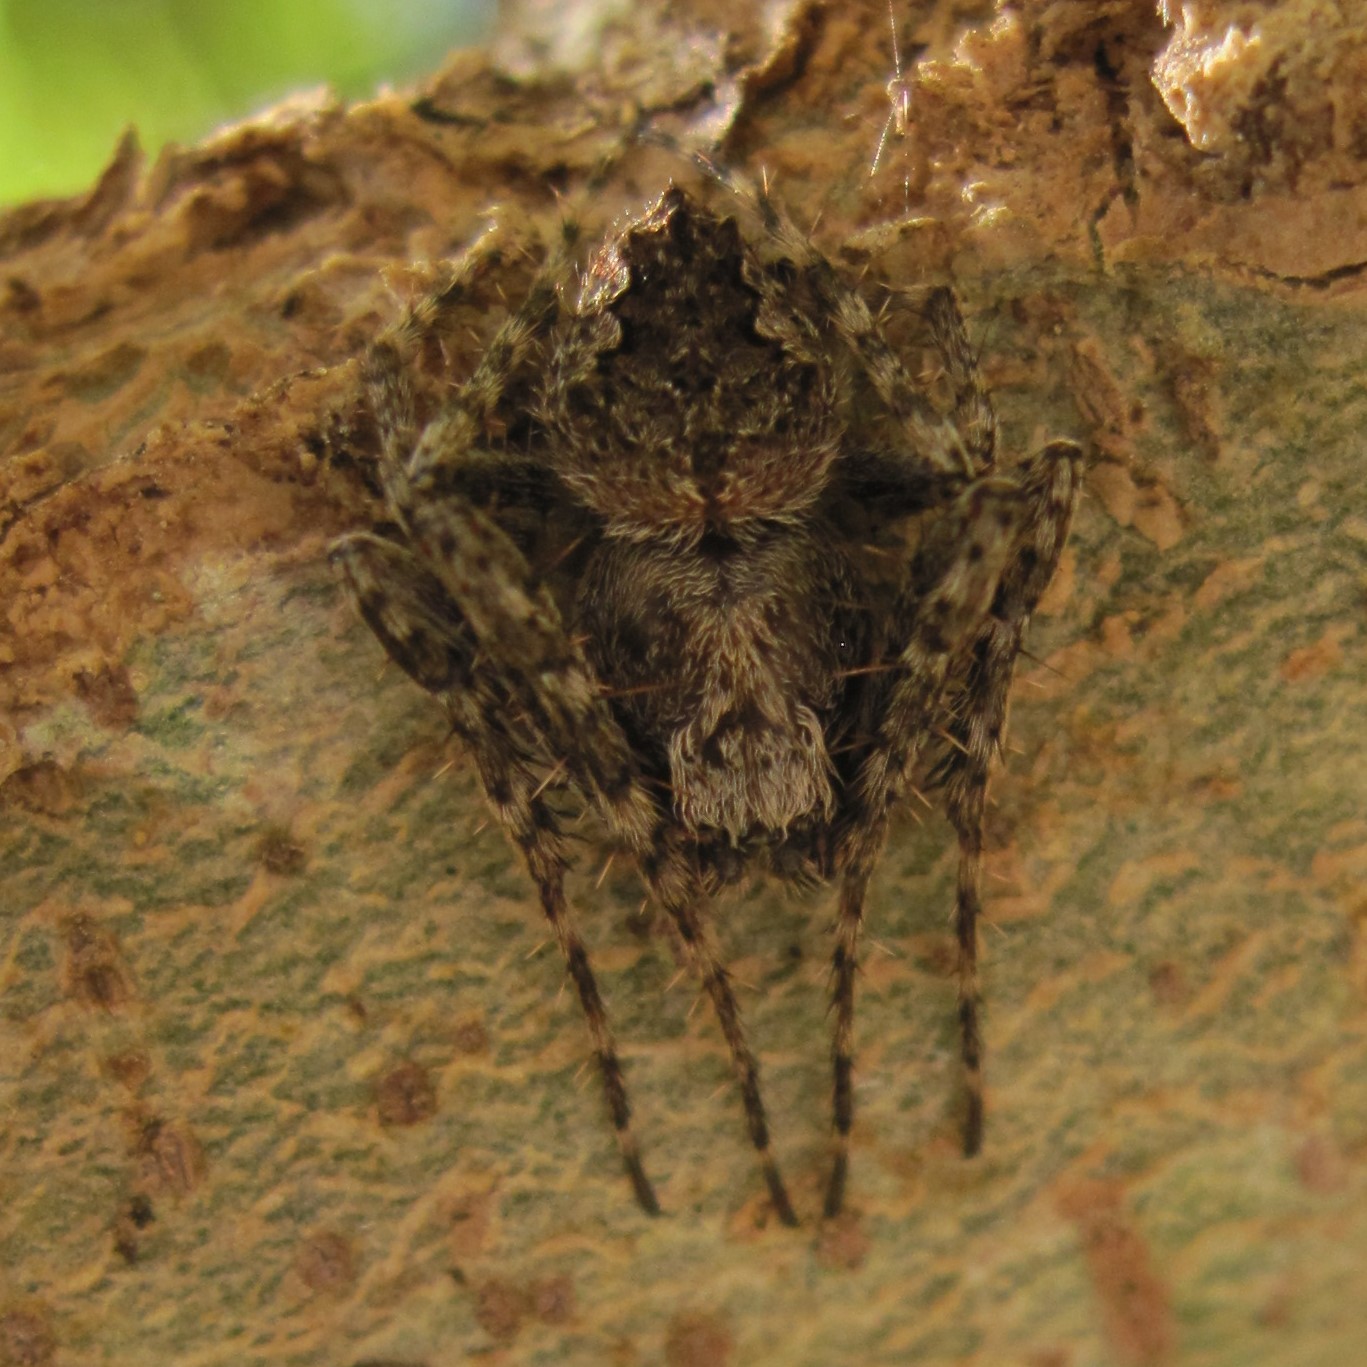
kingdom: Animalia
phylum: Arthropoda
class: Arachnida
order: Araneae
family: Araneidae
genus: Eriophora
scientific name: Eriophora pustulosa
